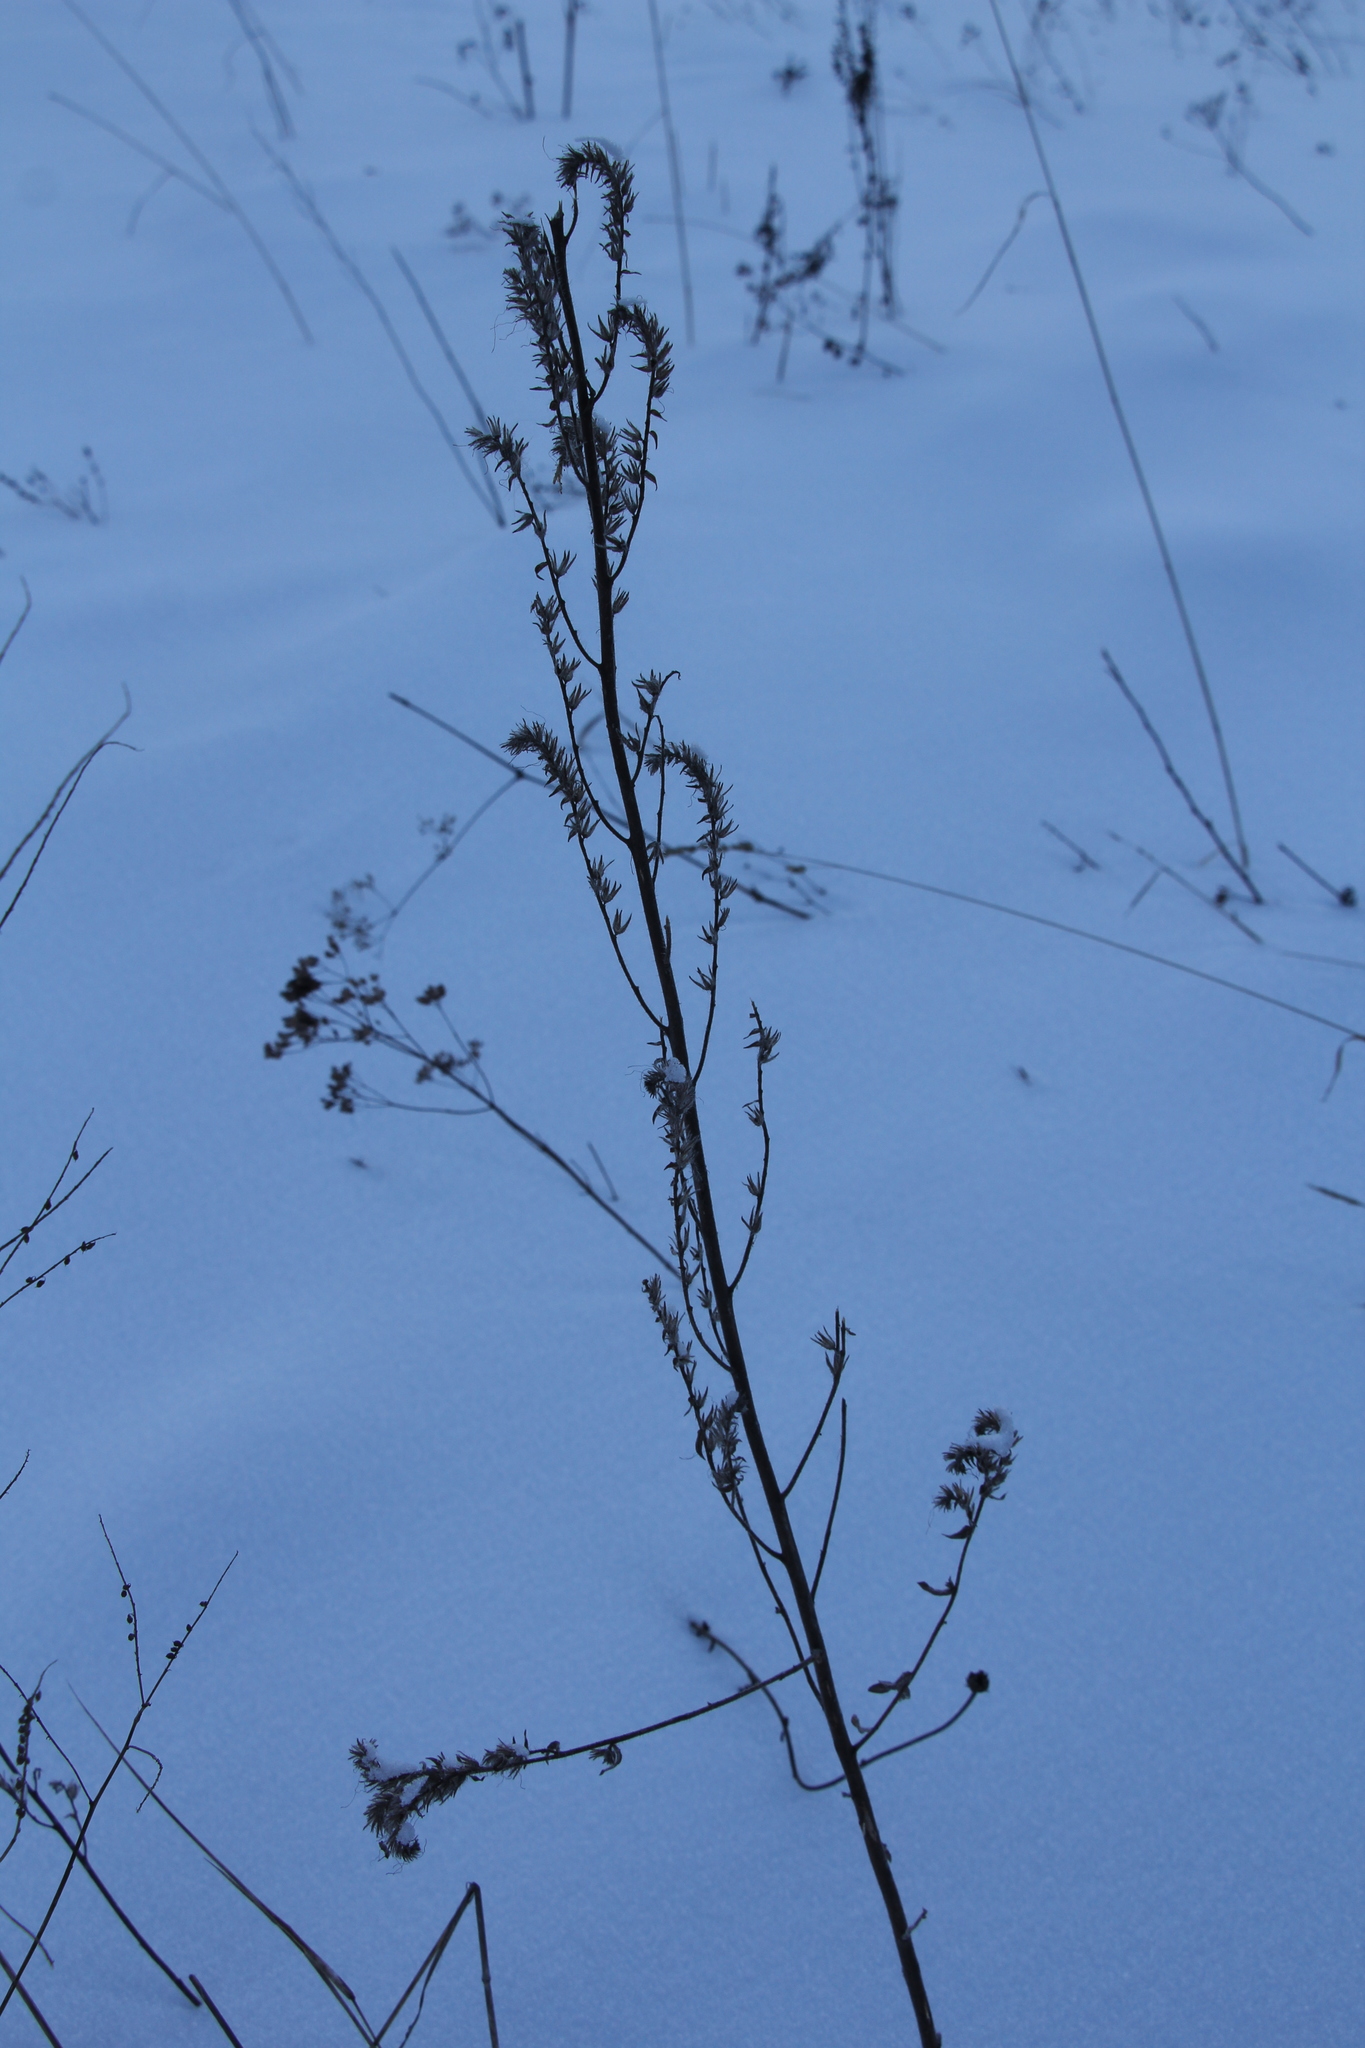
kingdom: Plantae
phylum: Tracheophyta
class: Magnoliopsida
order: Boraginales
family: Boraginaceae
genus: Echium
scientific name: Echium vulgare
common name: Common viper's bugloss
